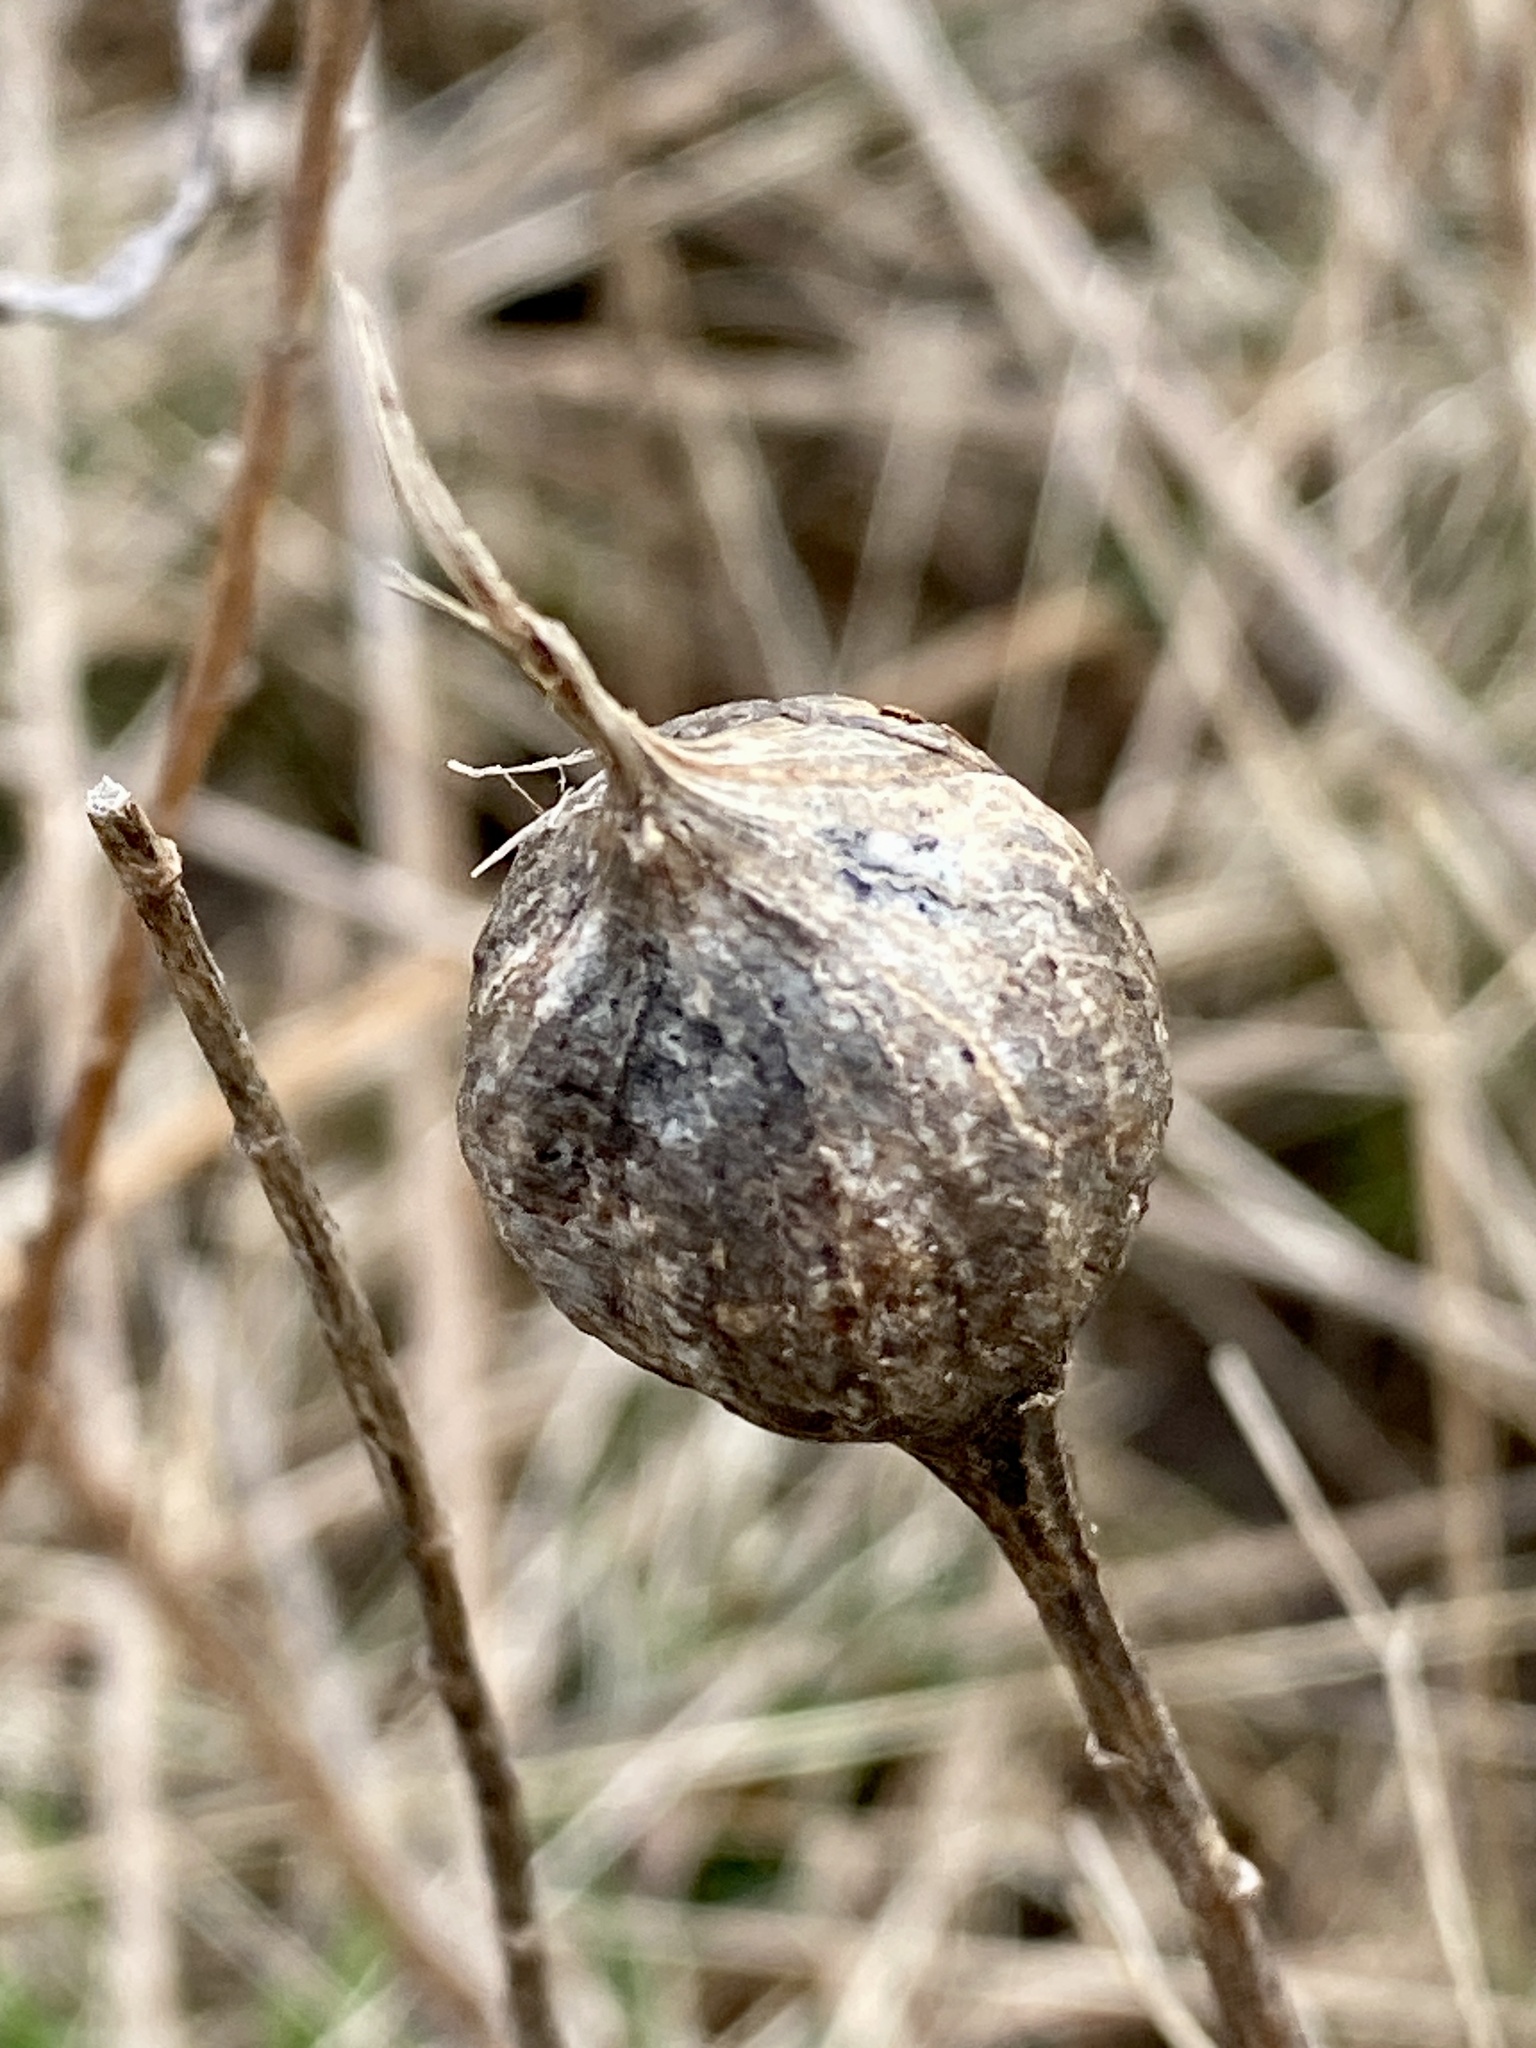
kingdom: Animalia
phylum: Arthropoda
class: Insecta
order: Diptera
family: Tephritidae
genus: Eurosta
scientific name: Eurosta solidaginis
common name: Goldenrod gall fly
